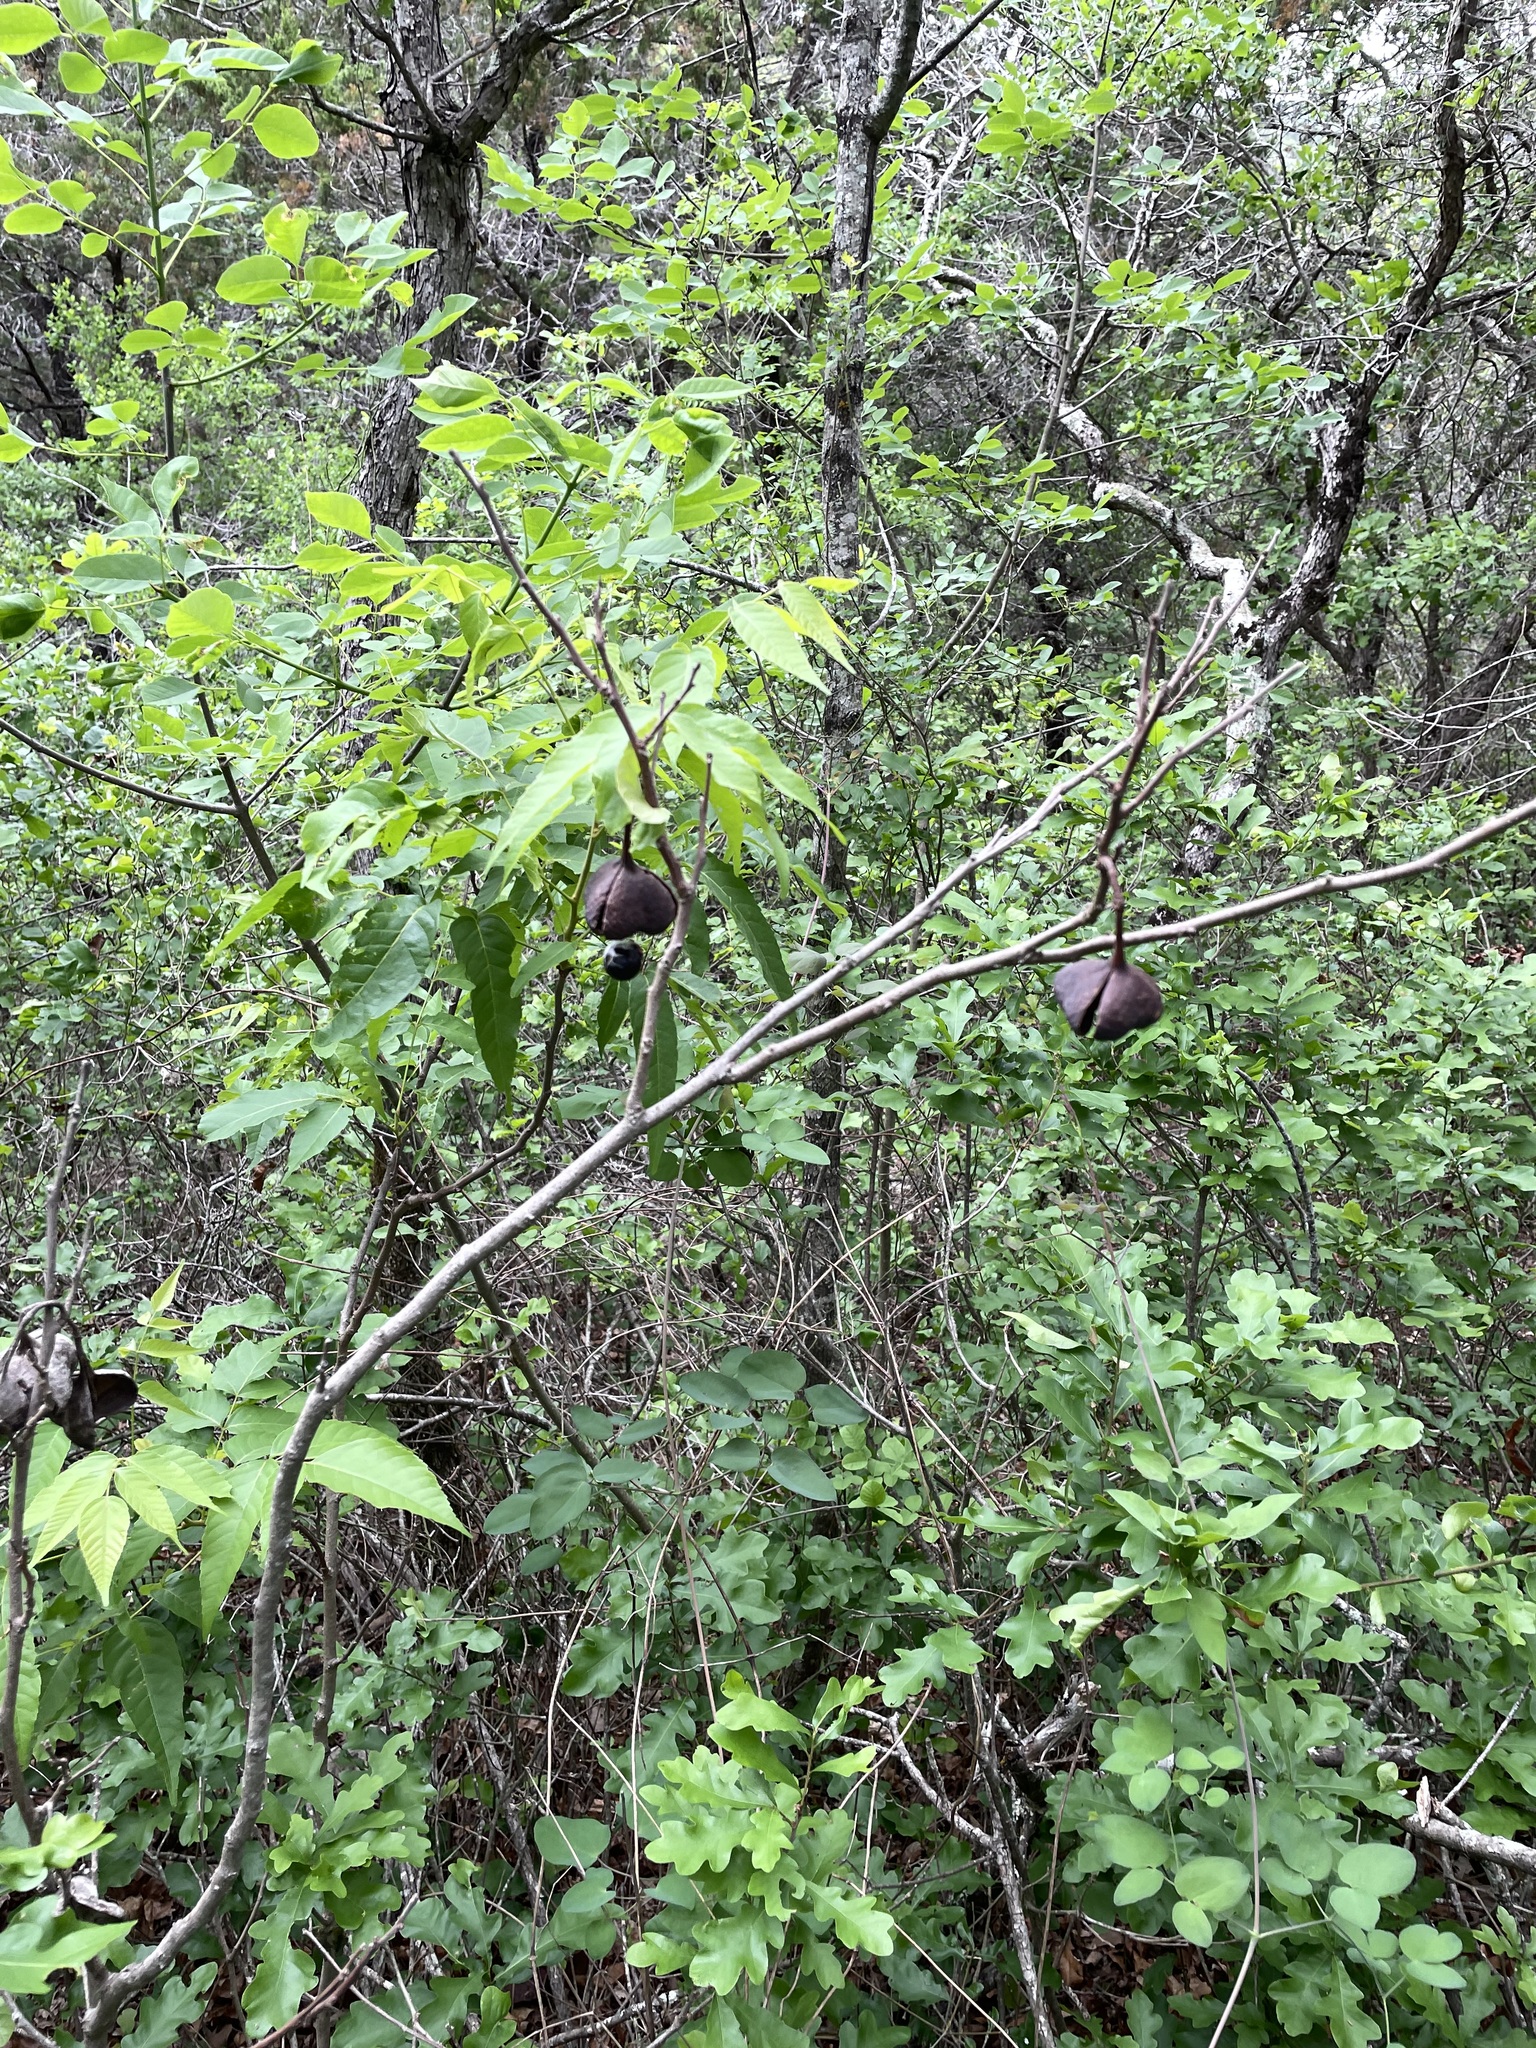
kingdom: Plantae
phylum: Tracheophyta
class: Magnoliopsida
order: Sapindales
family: Sapindaceae
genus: Ungnadia
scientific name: Ungnadia speciosa
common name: Texas-buckeye
